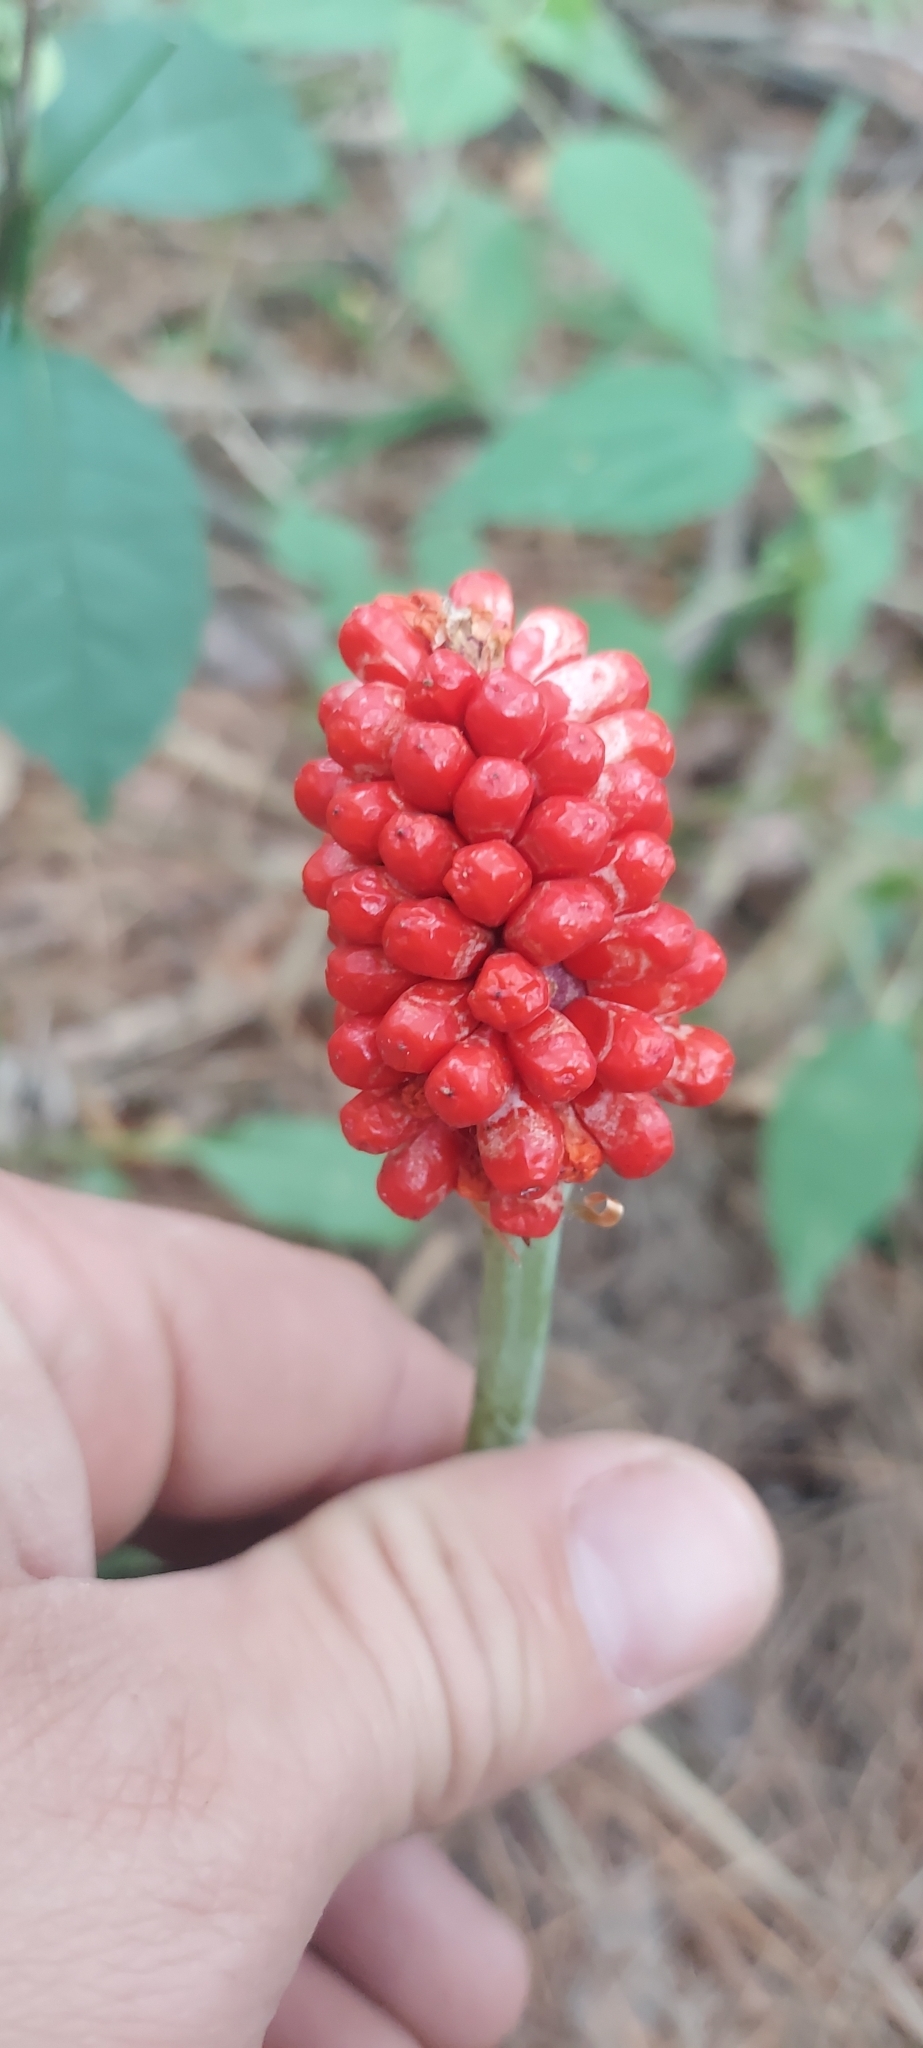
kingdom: Plantae
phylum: Tracheophyta
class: Liliopsida
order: Alismatales
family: Araceae
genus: Arisaema
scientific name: Arisaema triphyllum
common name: Jack-in-the-pulpit
